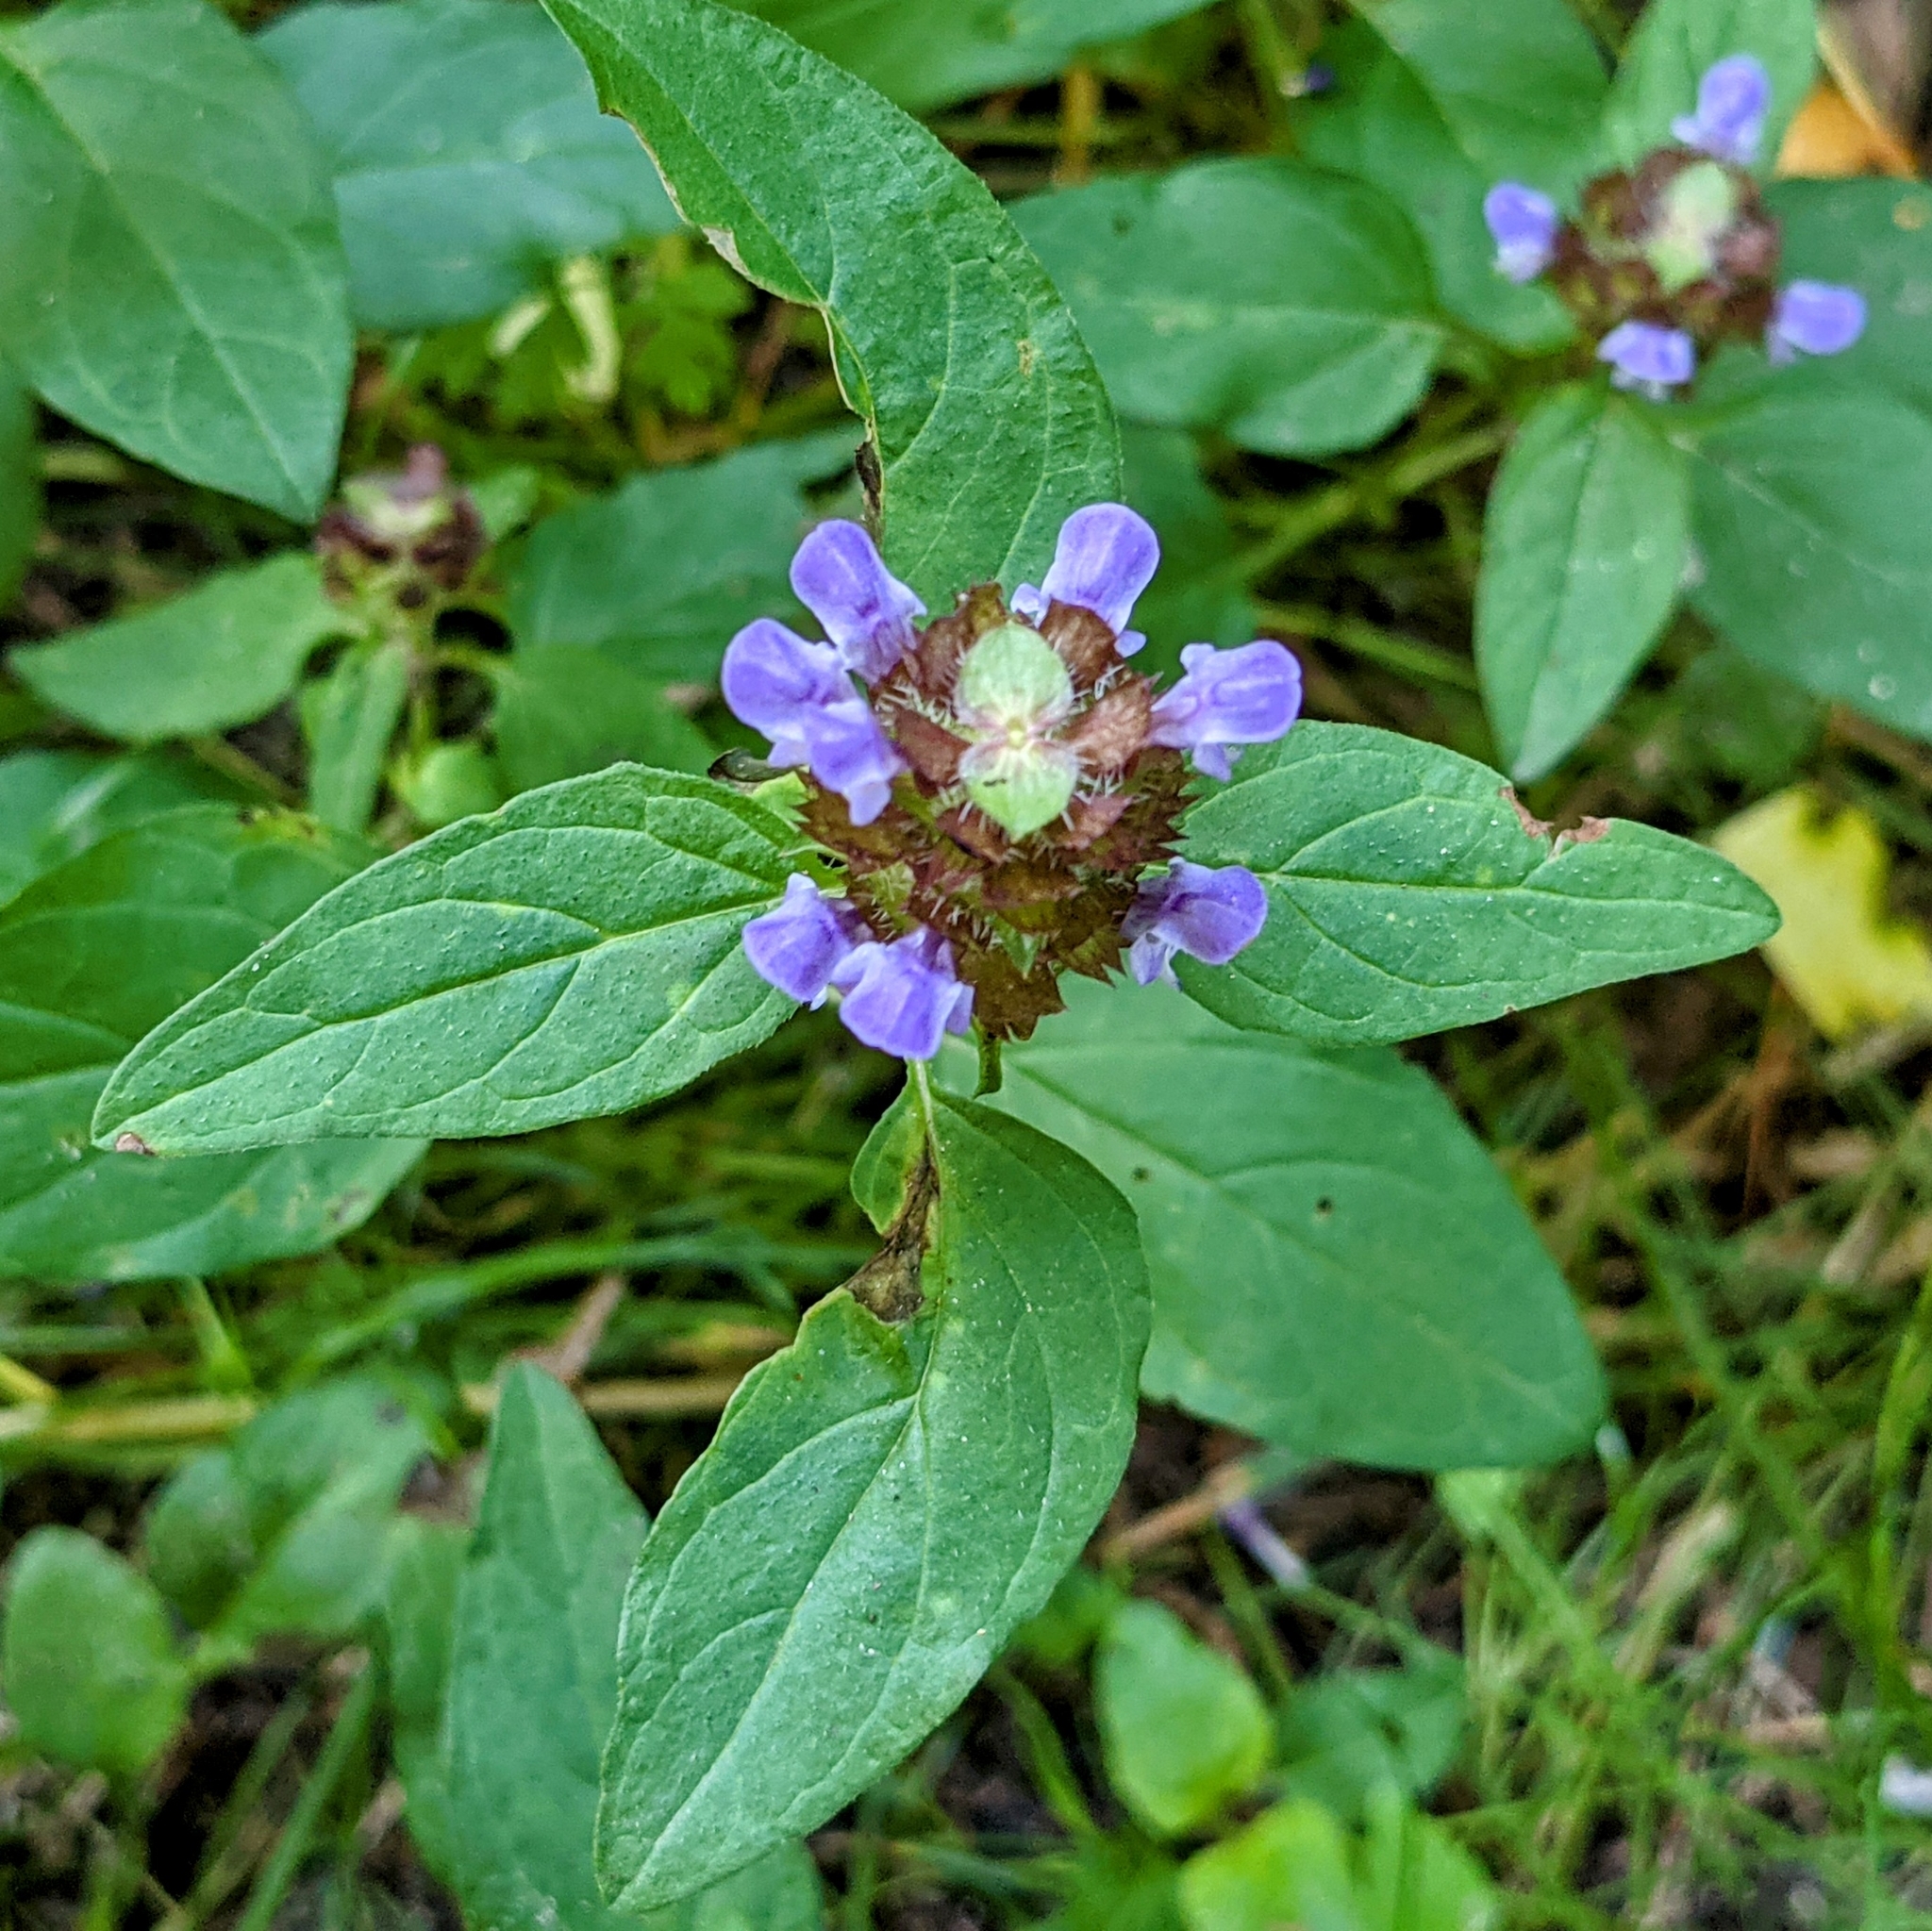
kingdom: Plantae
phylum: Tracheophyta
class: Magnoliopsida
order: Lamiales
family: Lamiaceae
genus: Prunella
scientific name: Prunella vulgaris
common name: Heal-all
